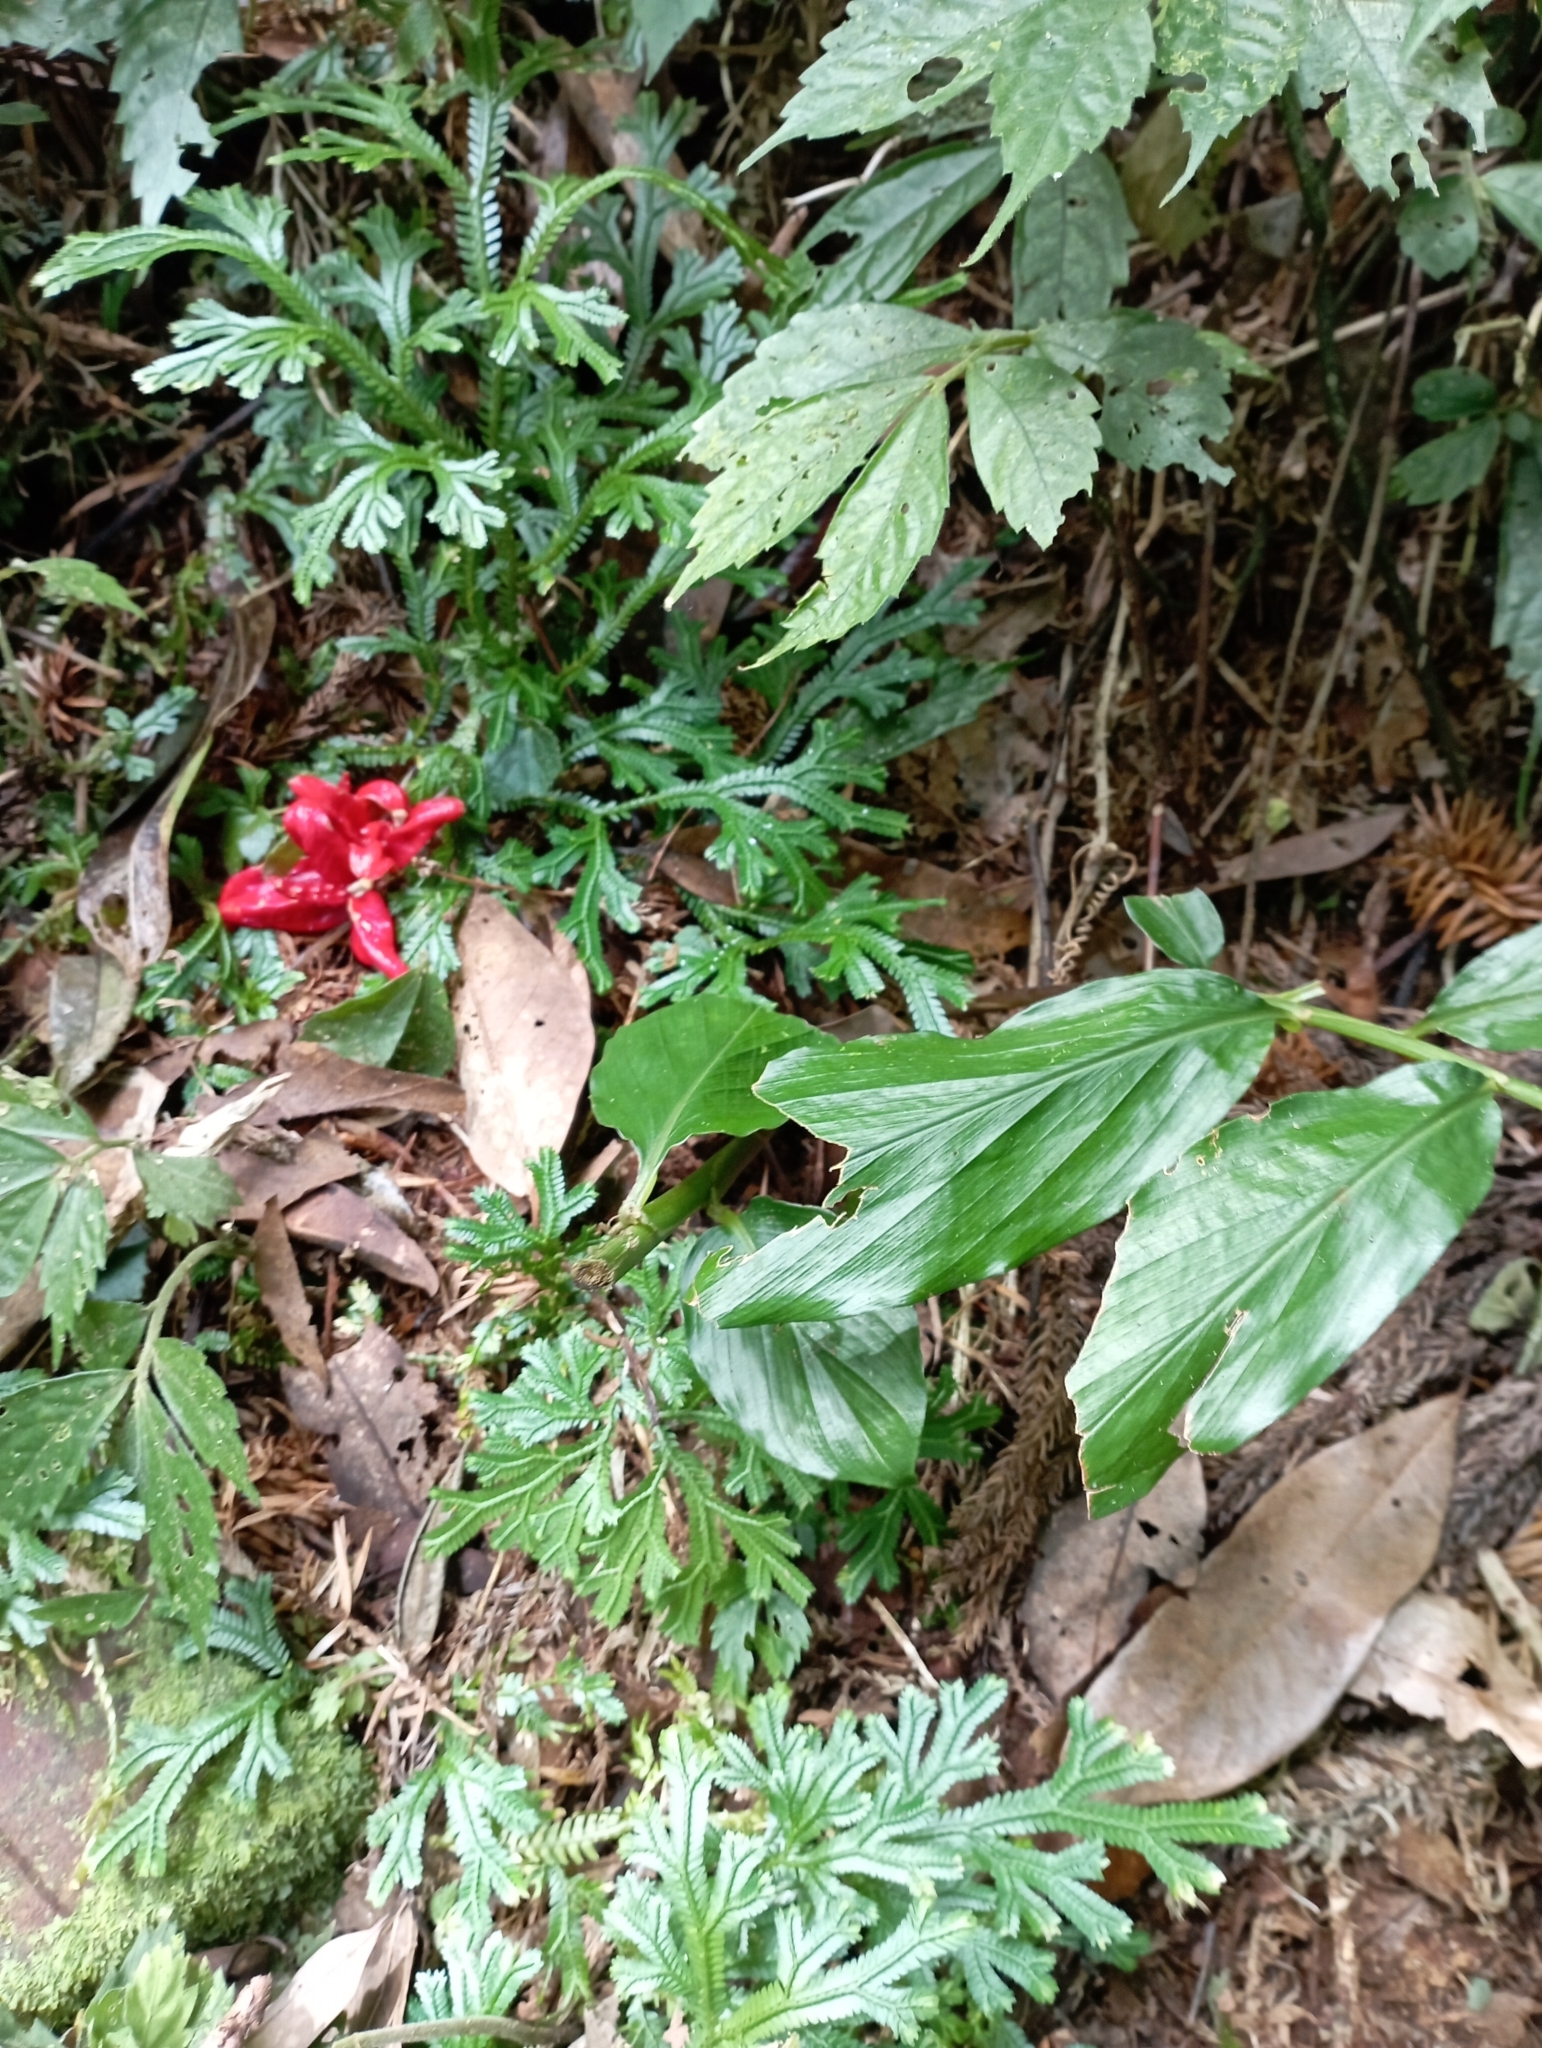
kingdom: Plantae
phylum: Tracheophyta
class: Liliopsida
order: Zingiberales
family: Zingiberaceae
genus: Zingiber
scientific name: Zingiber kawagoii
